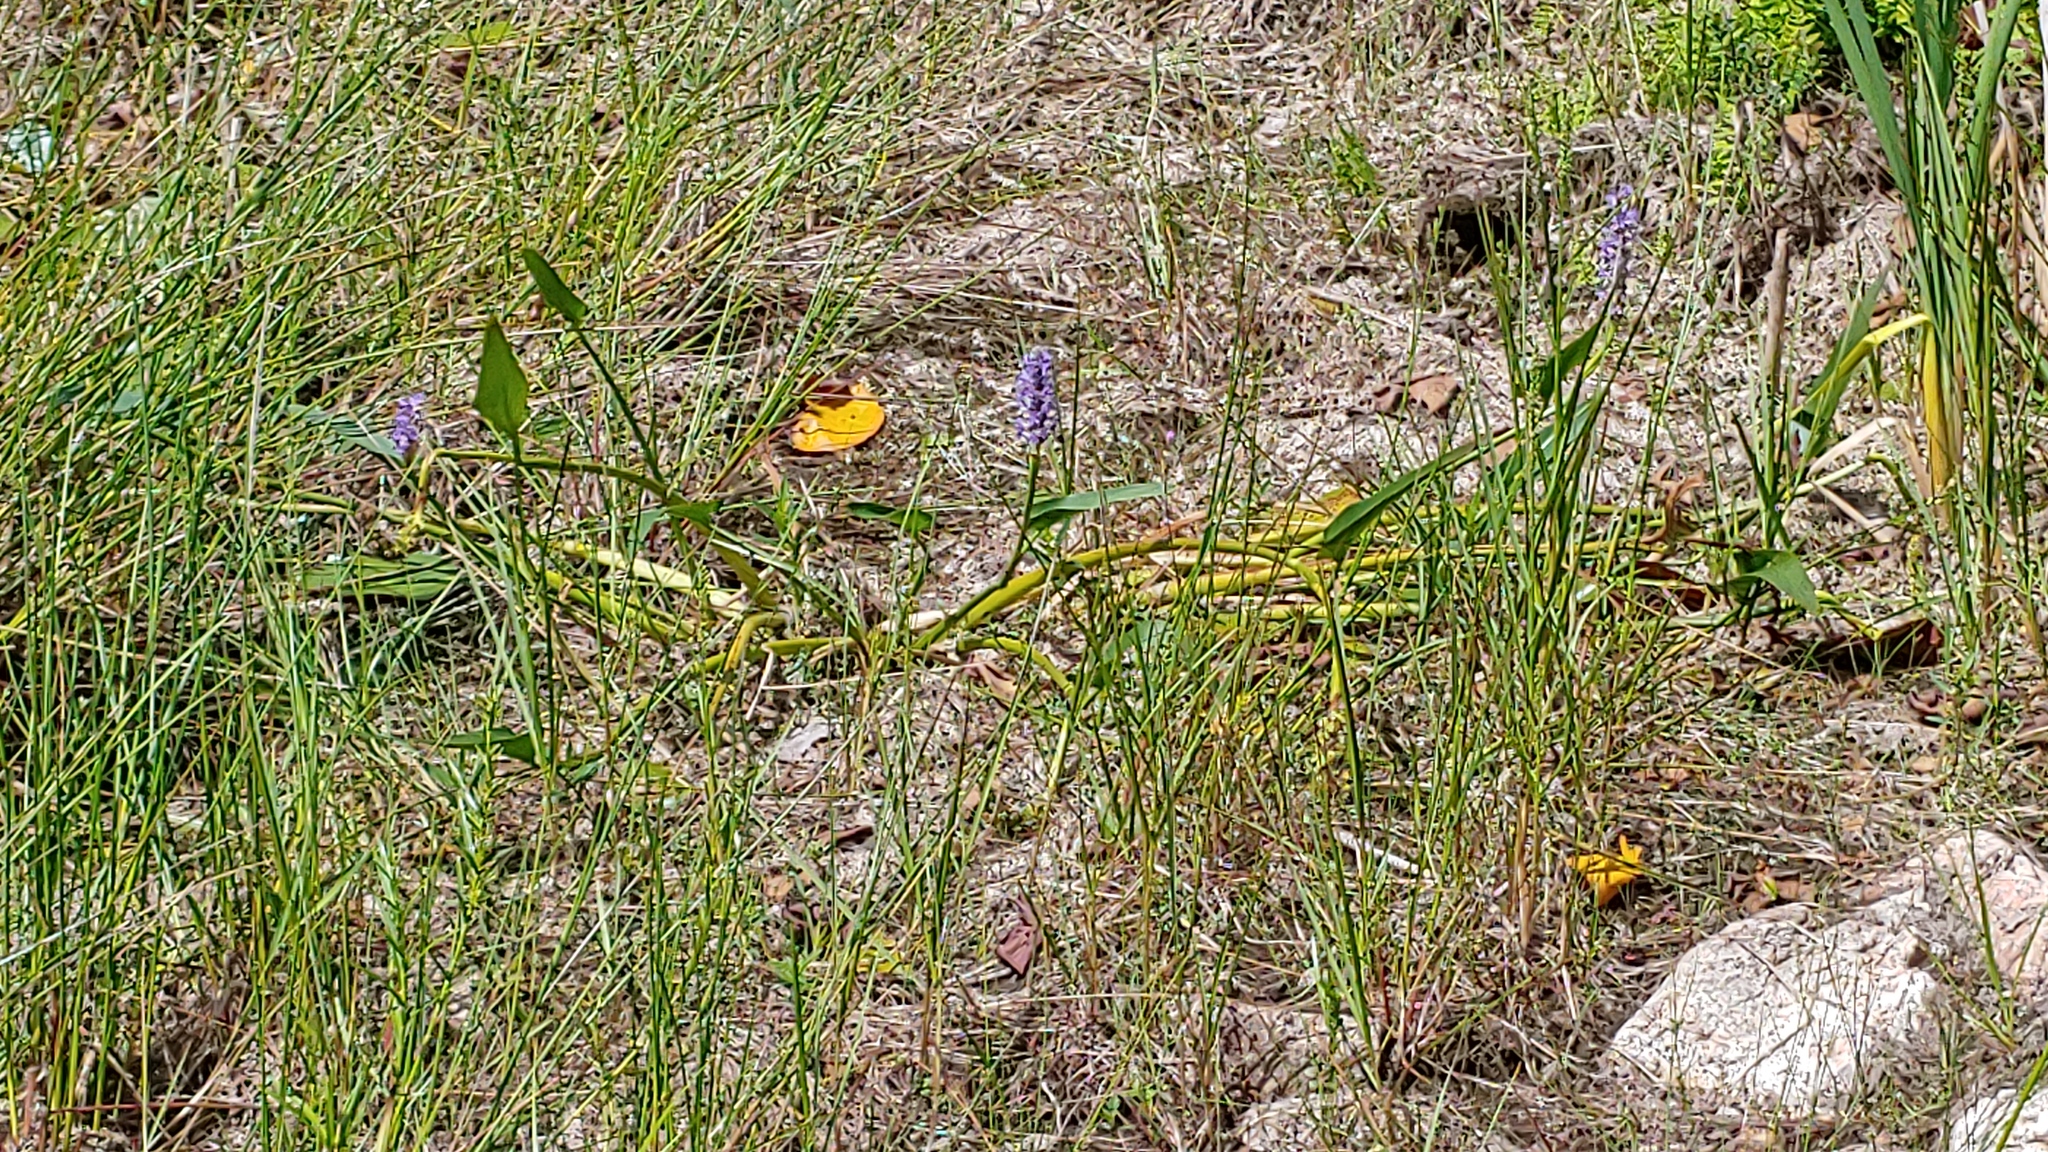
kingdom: Plantae
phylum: Tracheophyta
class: Liliopsida
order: Commelinales
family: Pontederiaceae
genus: Pontederia
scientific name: Pontederia cordata
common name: Pickerelweed
